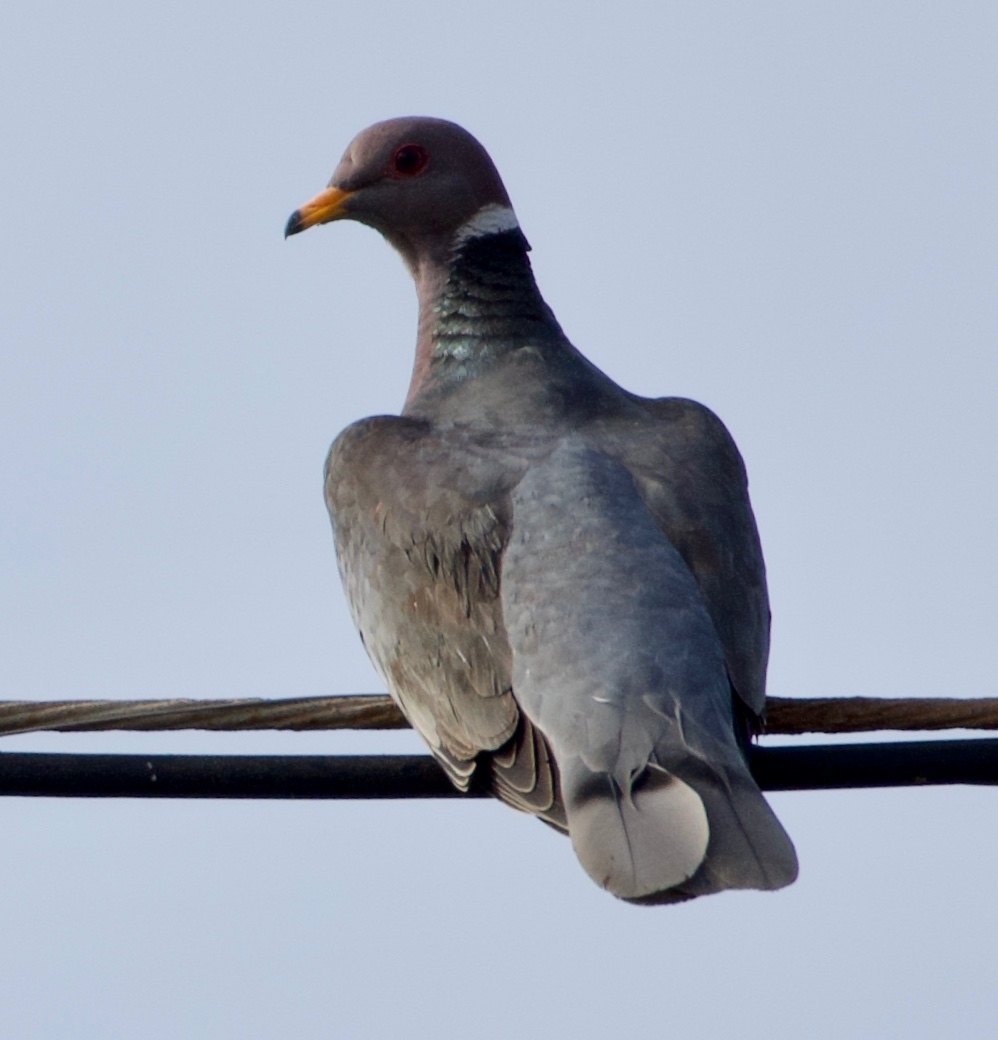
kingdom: Animalia
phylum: Chordata
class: Aves
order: Columbiformes
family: Columbidae
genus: Patagioenas
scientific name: Patagioenas fasciata
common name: Band-tailed pigeon
